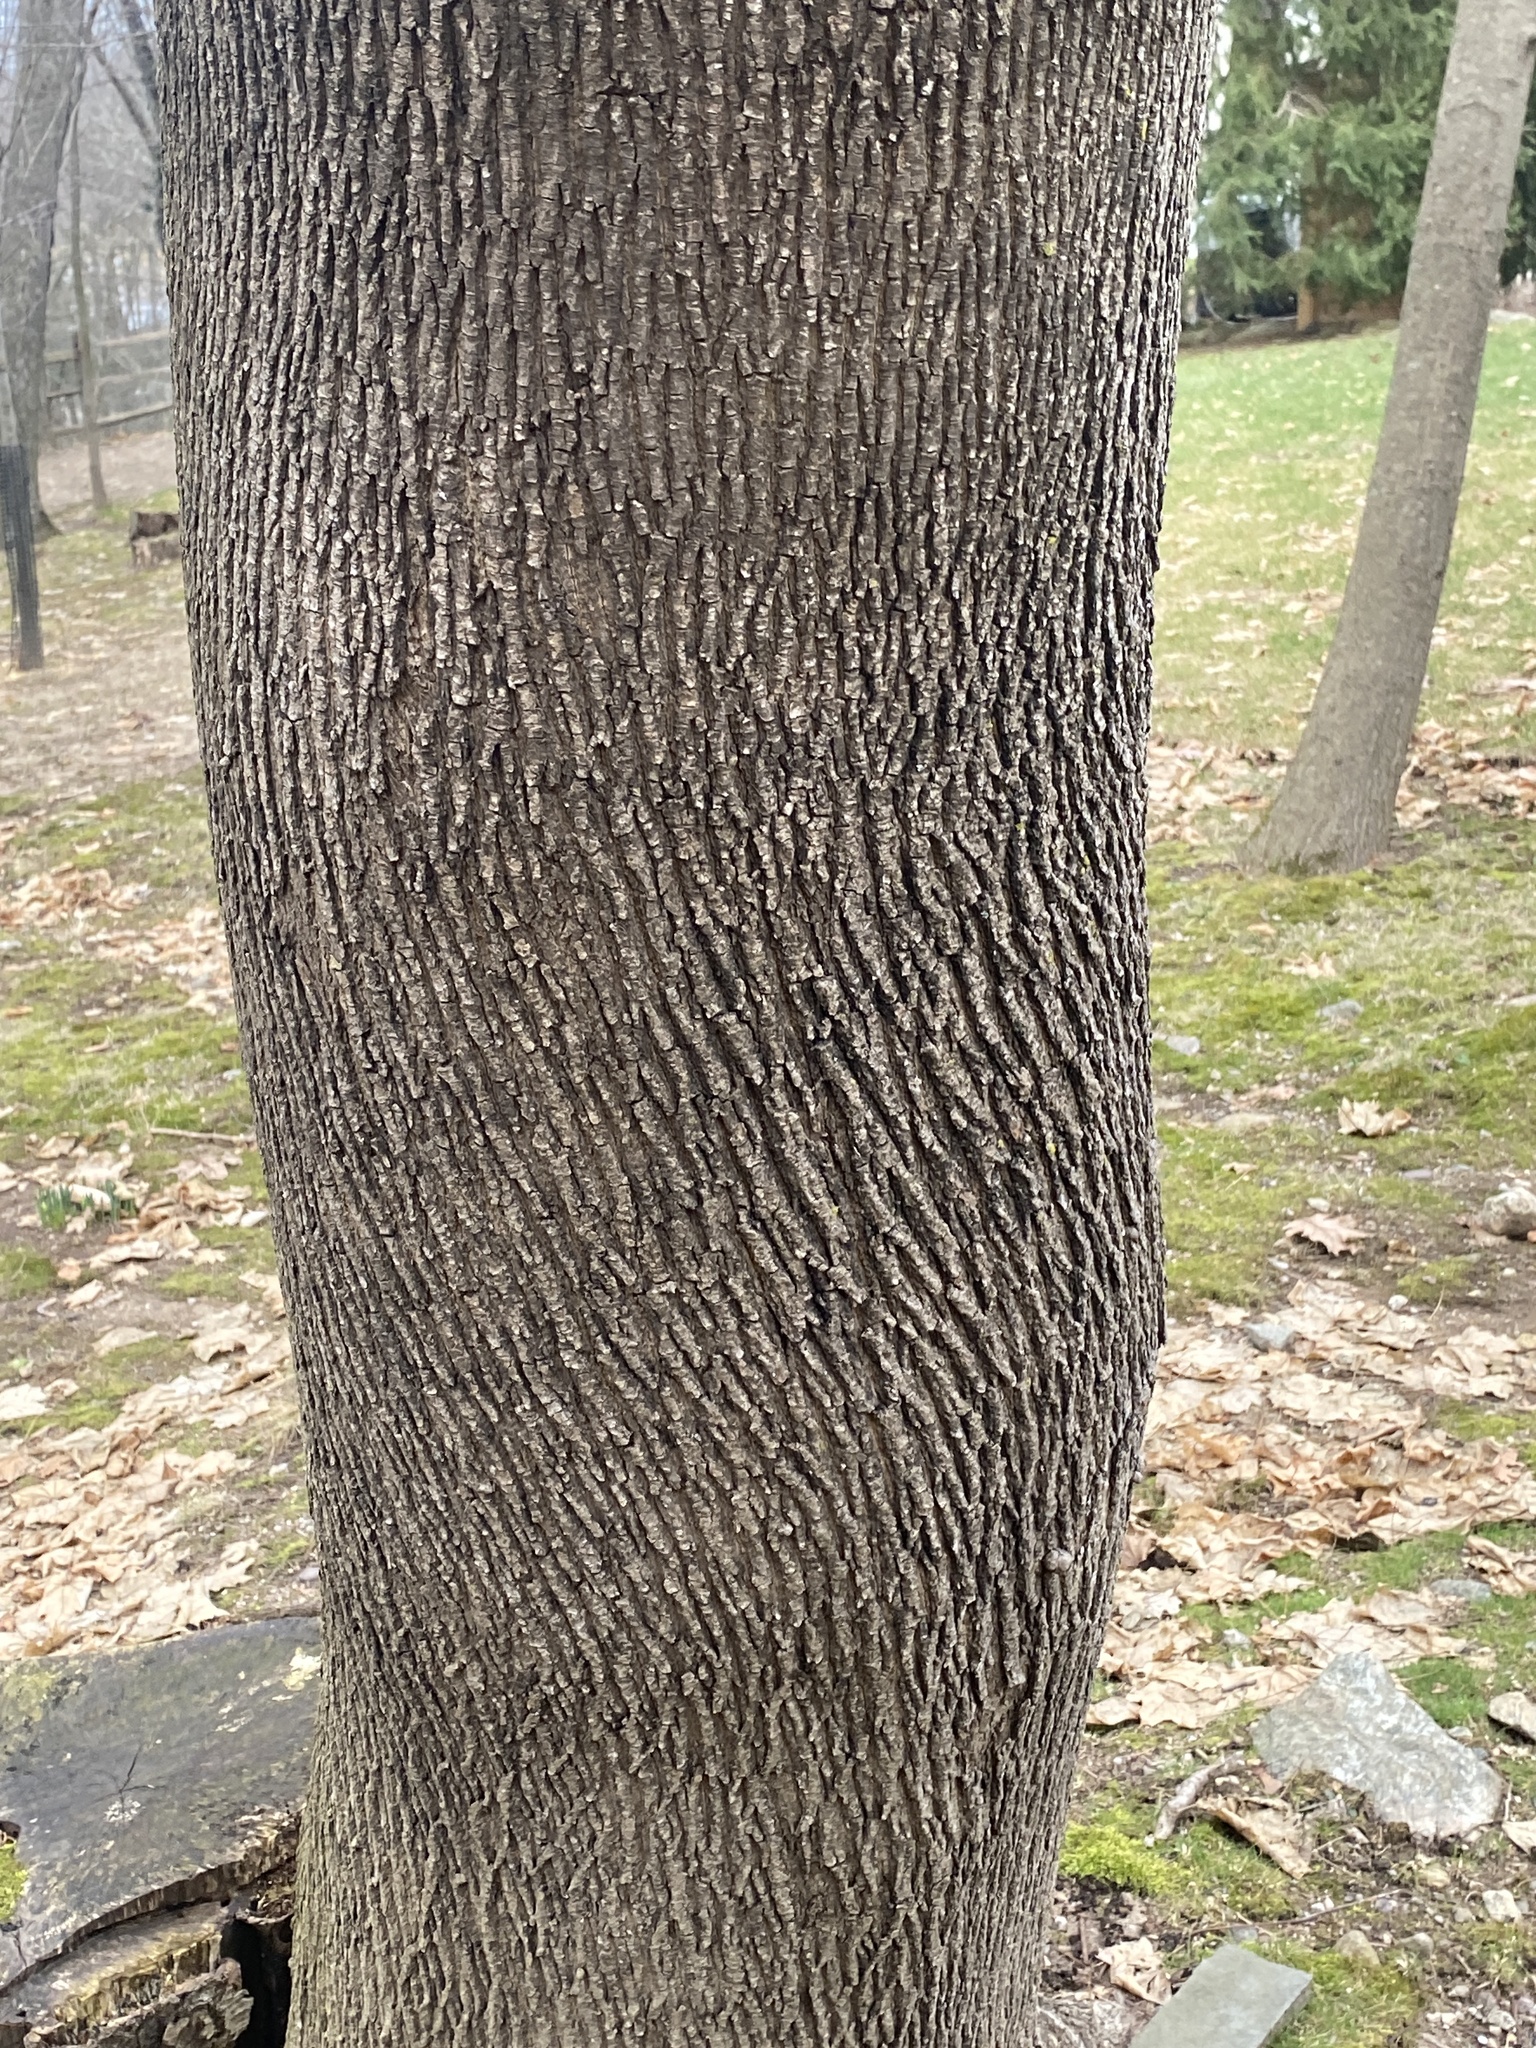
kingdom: Plantae
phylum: Tracheophyta
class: Magnoliopsida
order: Sapindales
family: Sapindaceae
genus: Acer
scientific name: Acer platanoides
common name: Norway maple
